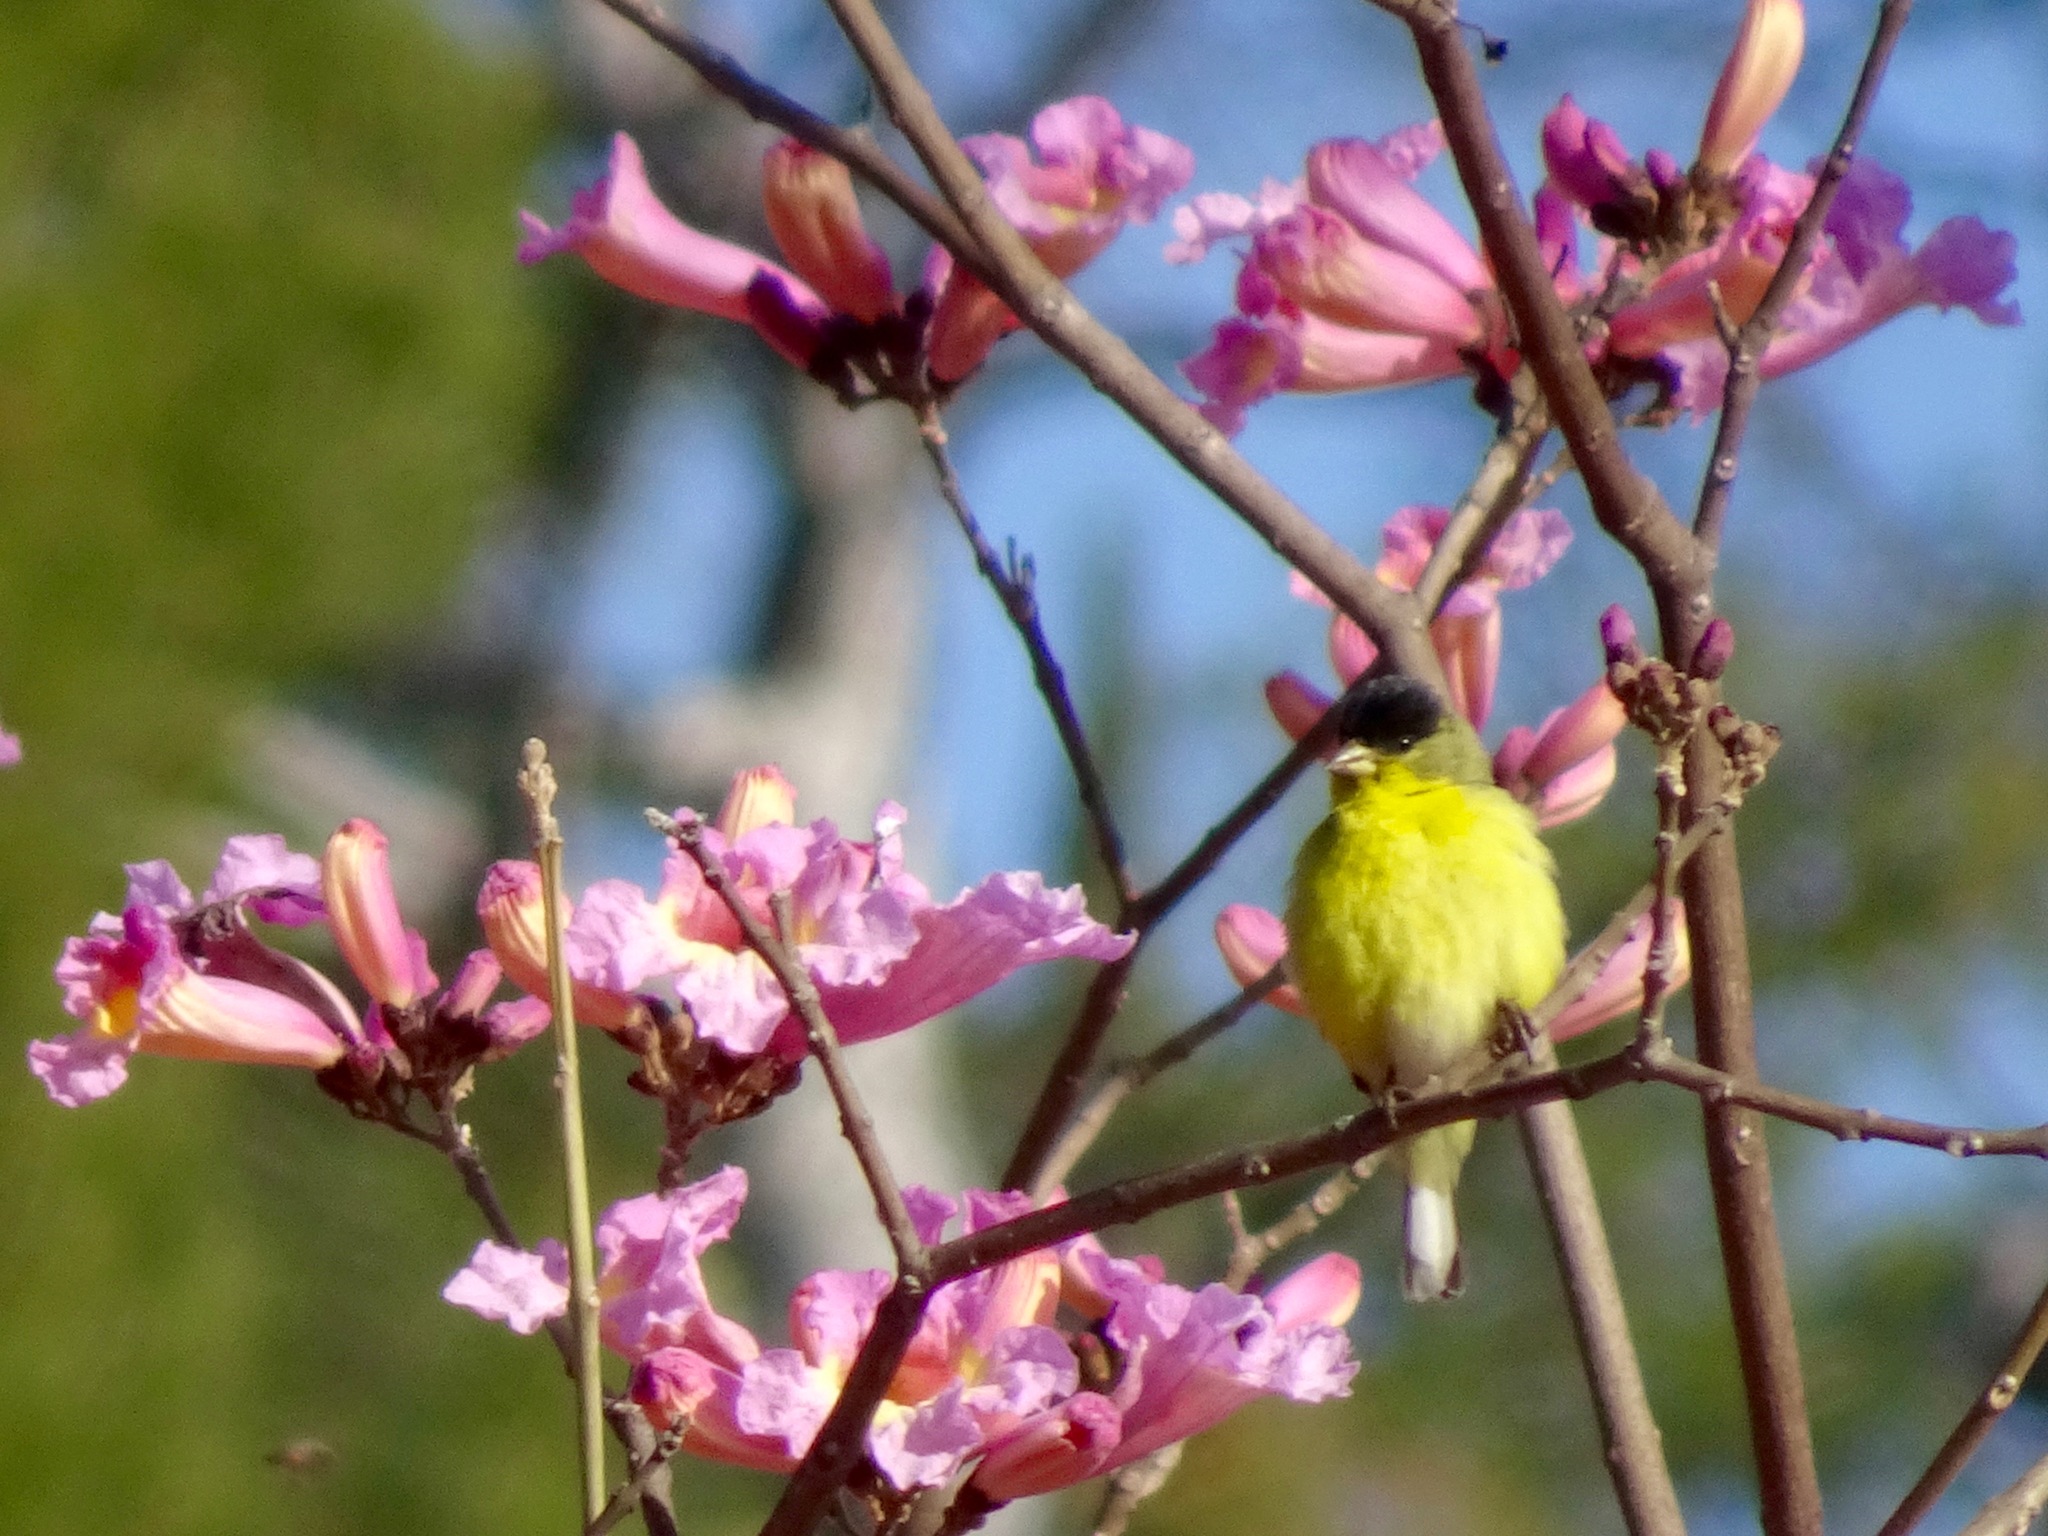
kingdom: Animalia
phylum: Chordata
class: Aves
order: Passeriformes
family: Fringillidae
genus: Spinus
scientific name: Spinus psaltria
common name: Lesser goldfinch
